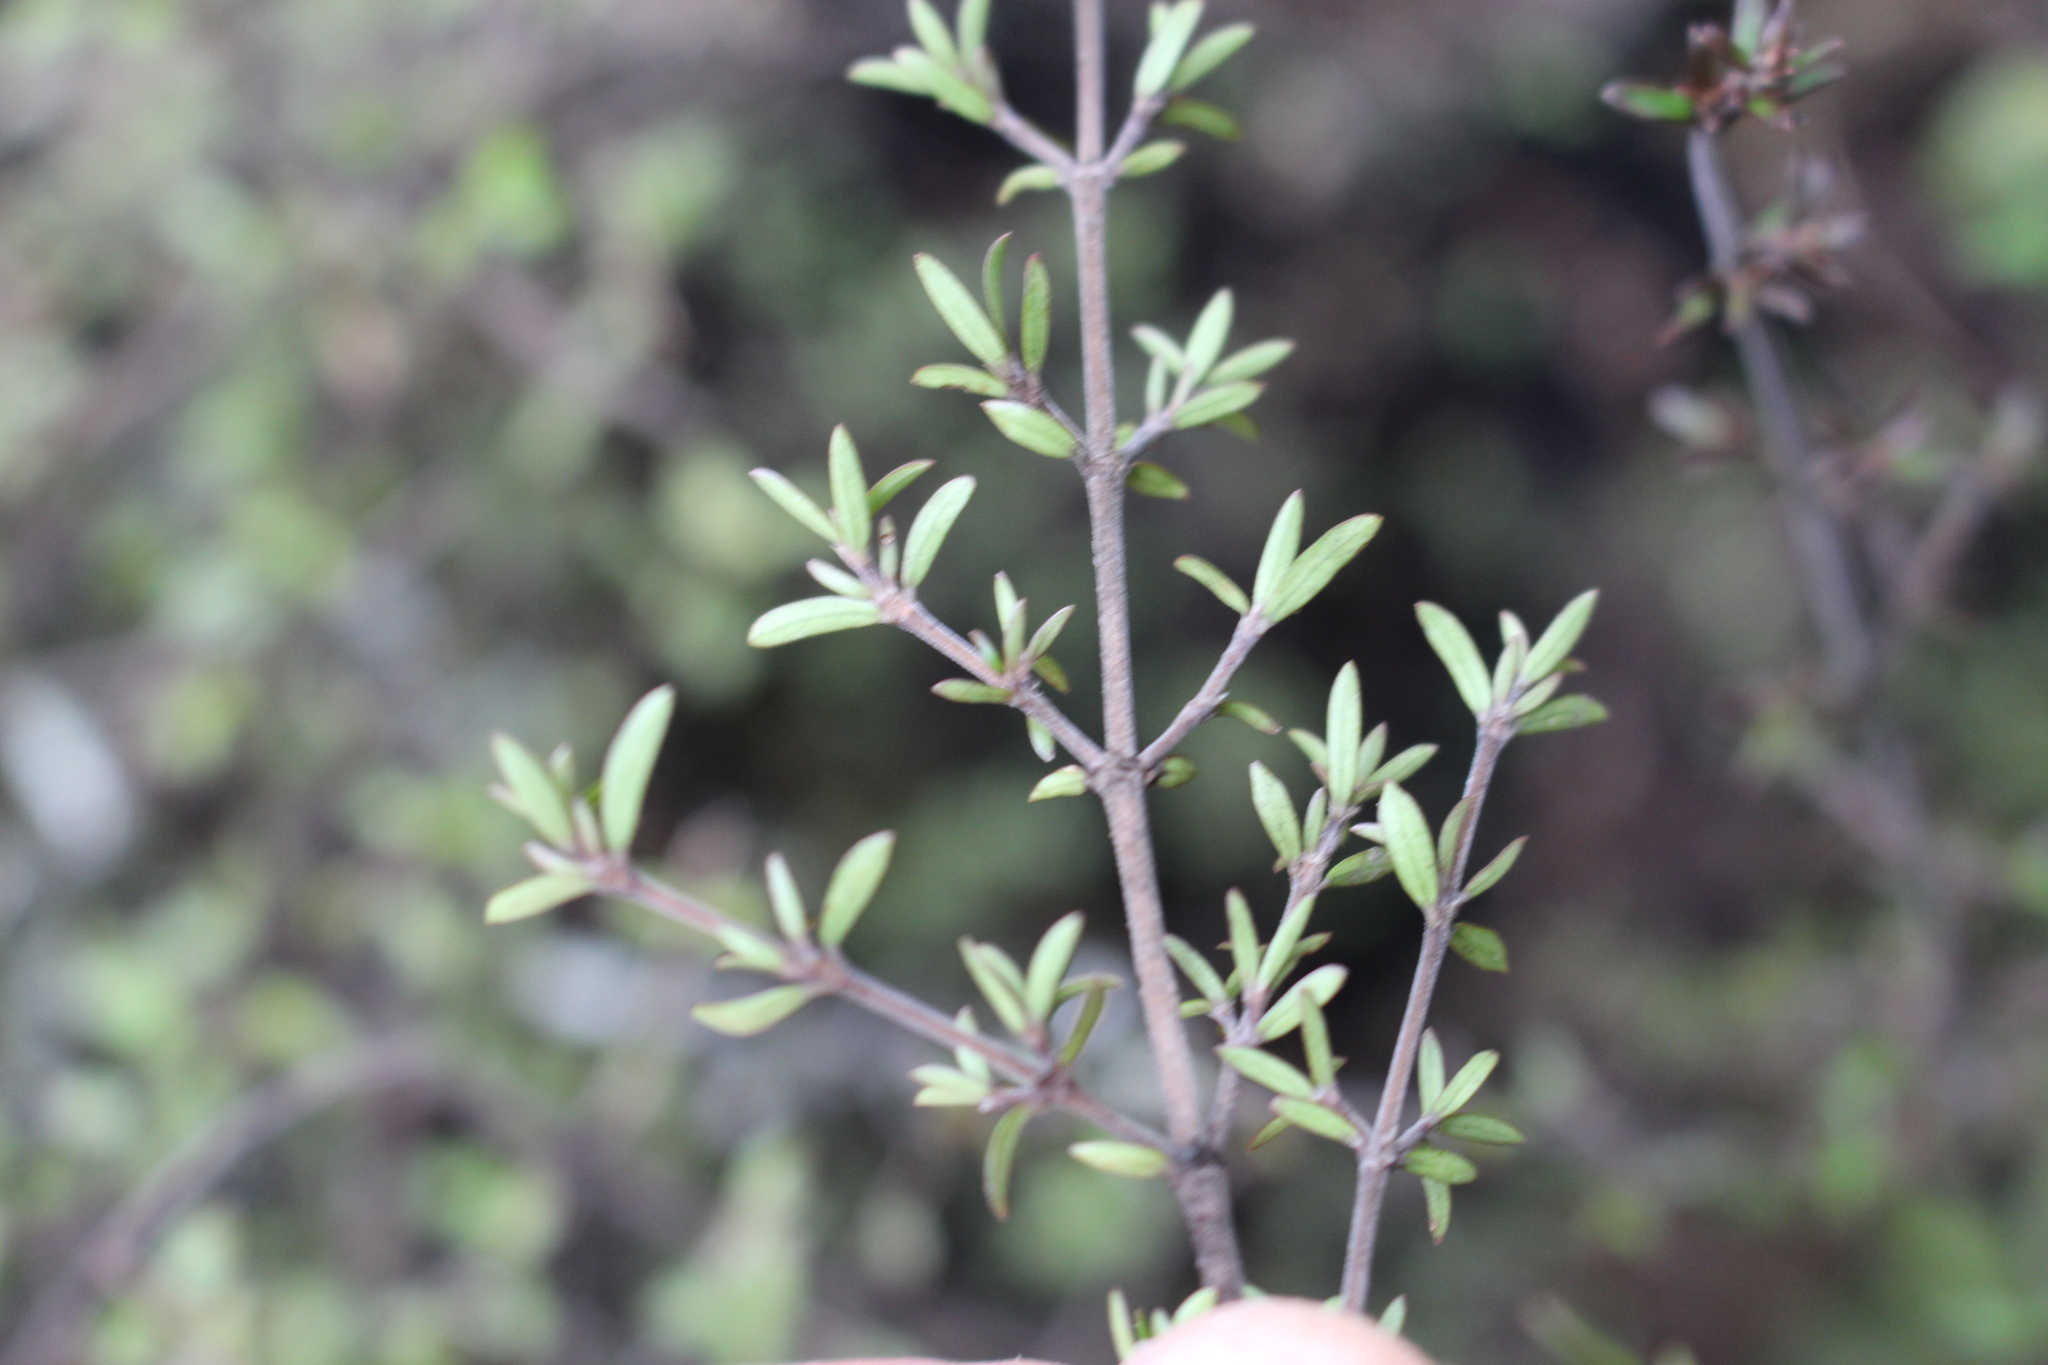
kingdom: Plantae
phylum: Tracheophyta
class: Magnoliopsida
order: Gentianales
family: Rubiaceae
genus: Coprosma
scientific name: Coprosma microcarpa
